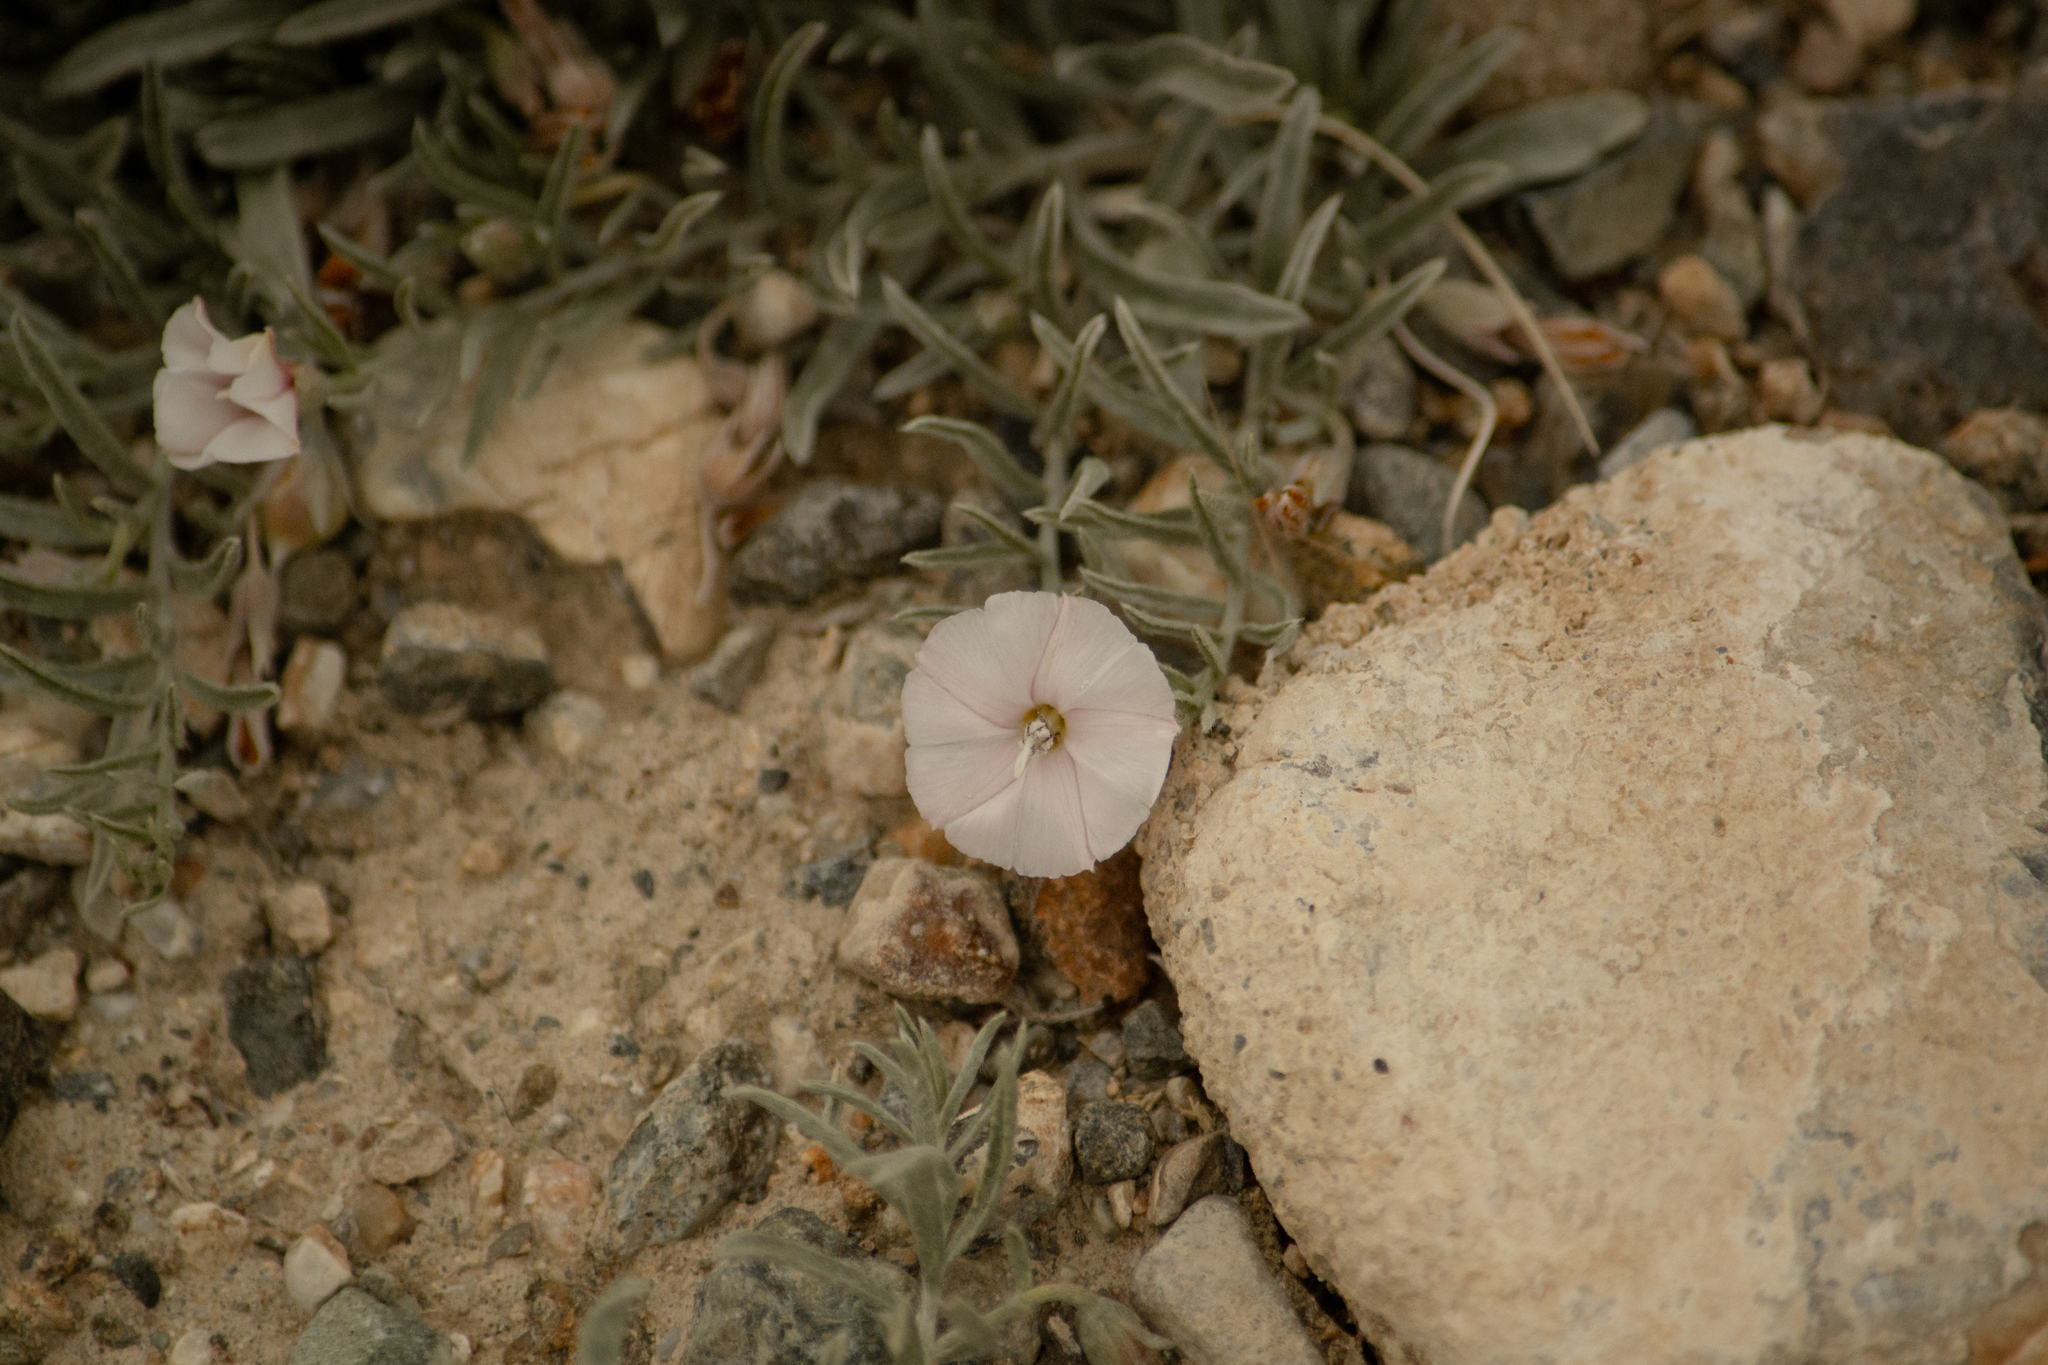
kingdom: Plantae
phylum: Tracheophyta
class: Magnoliopsida
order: Solanales
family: Convolvulaceae
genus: Convolvulus
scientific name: Convolvulus ammannii
